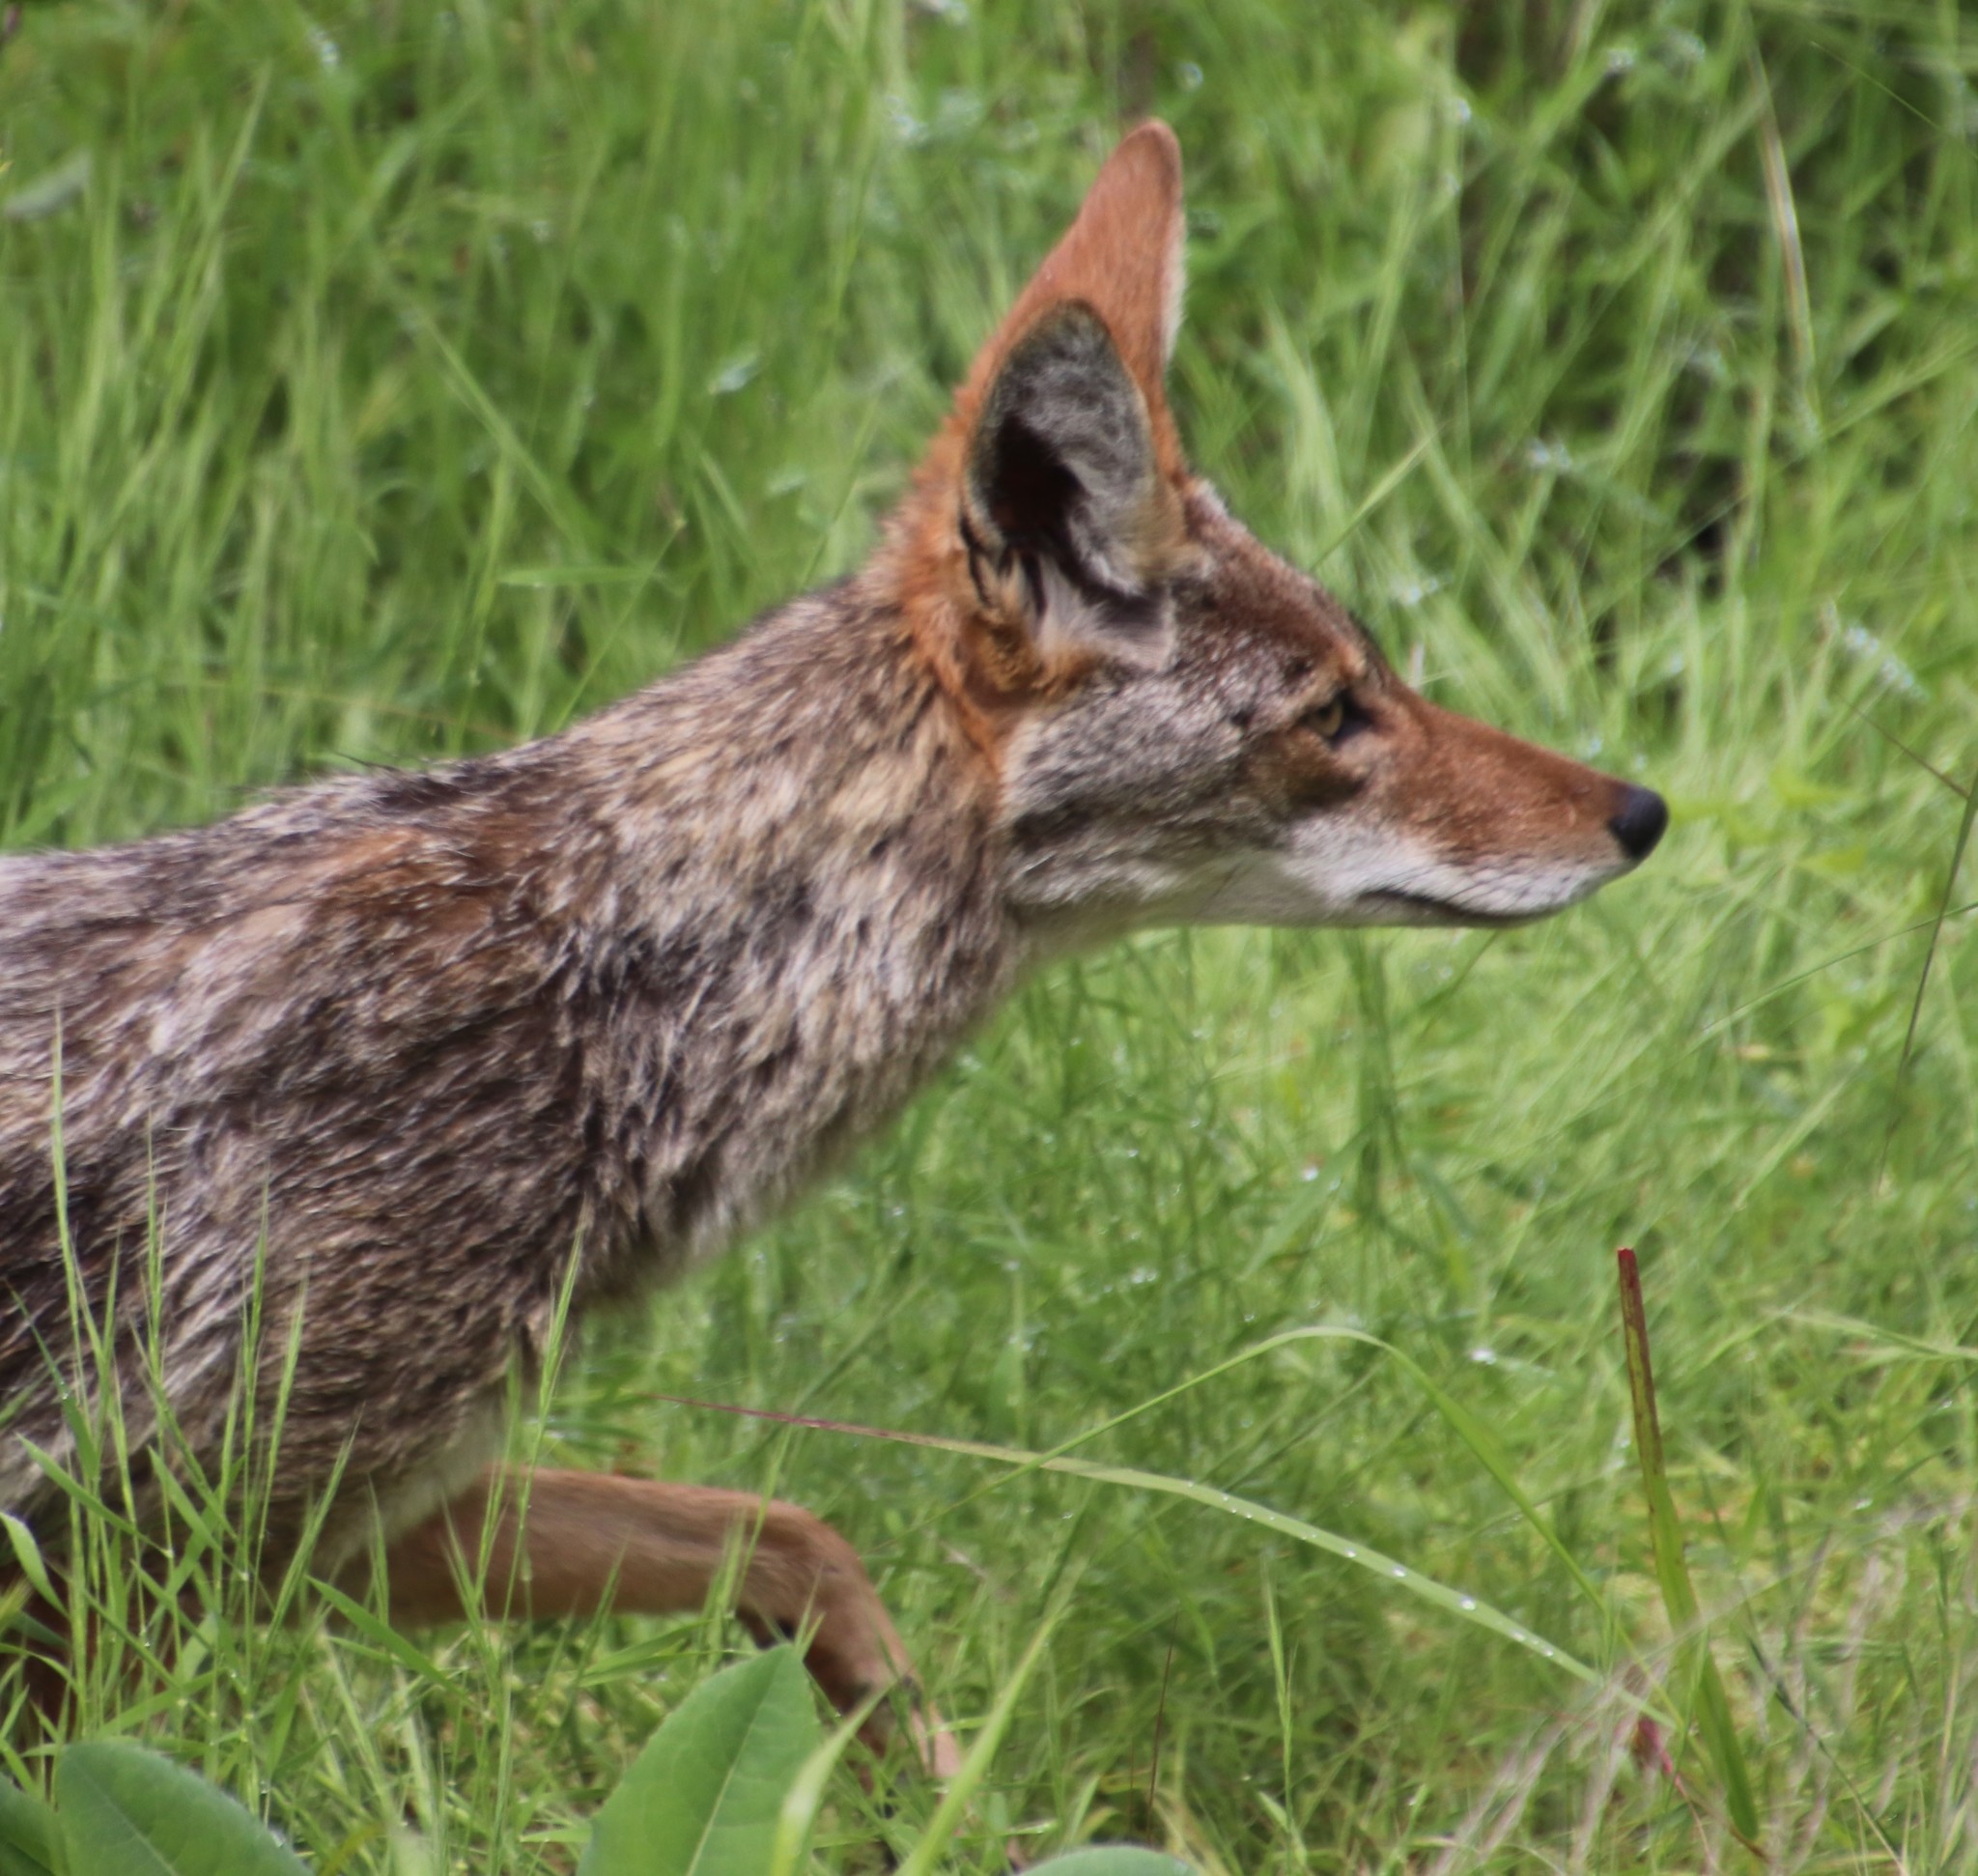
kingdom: Animalia
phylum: Chordata
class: Mammalia
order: Carnivora
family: Canidae
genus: Canis
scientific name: Canis latrans
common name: Coyote
